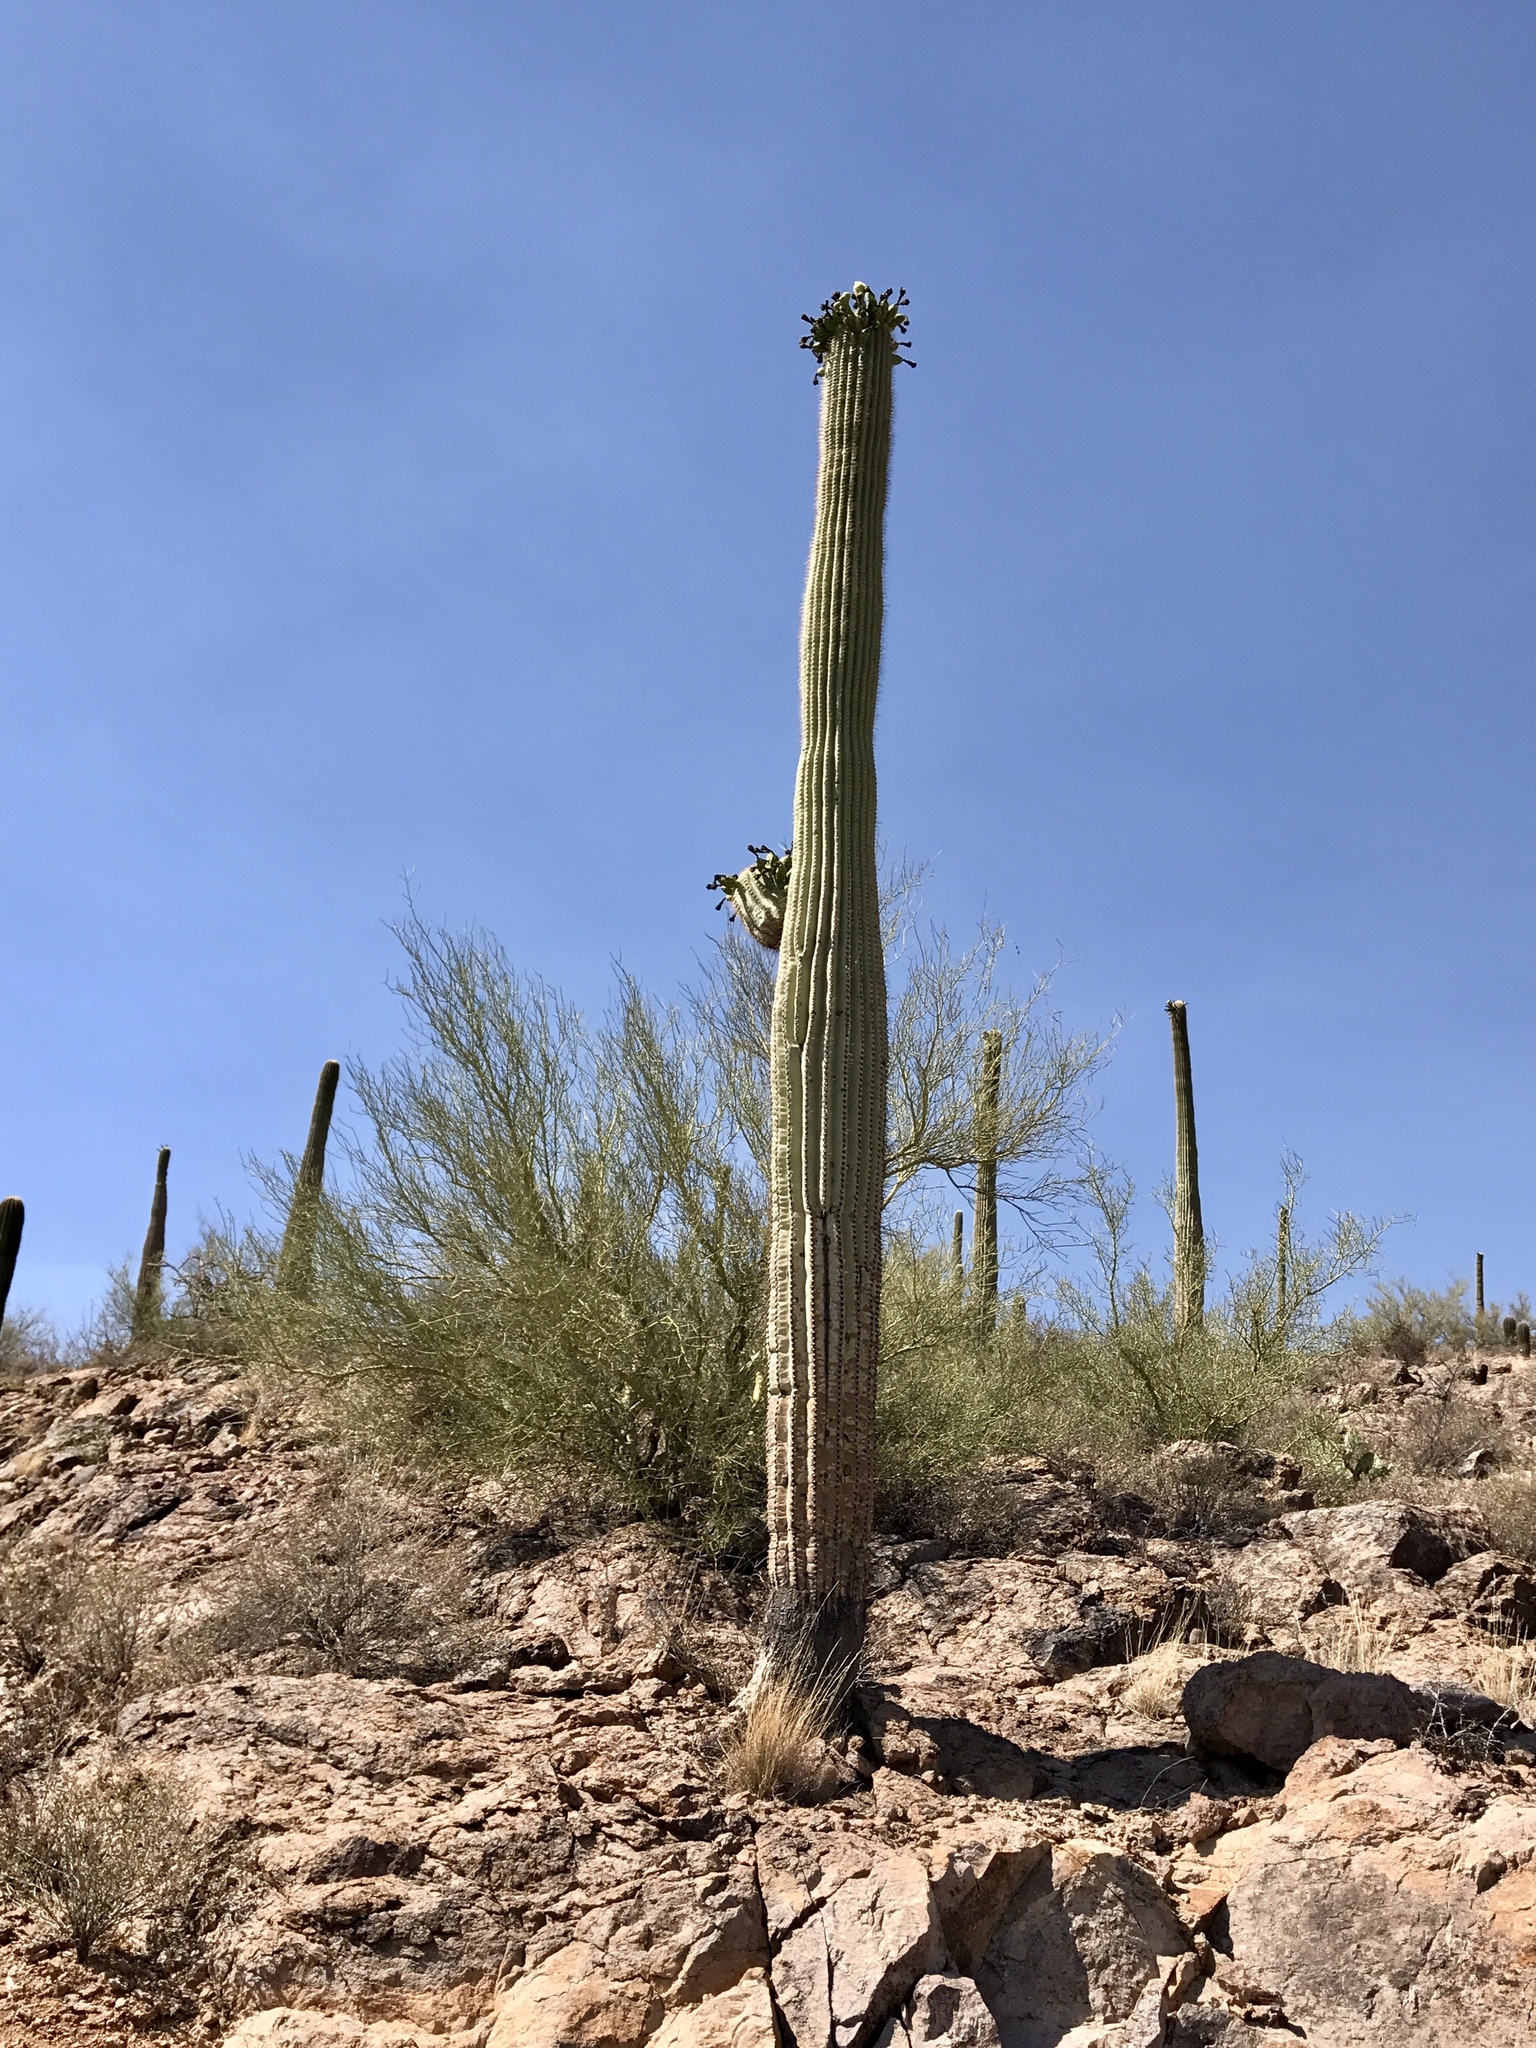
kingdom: Plantae
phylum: Tracheophyta
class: Magnoliopsida
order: Caryophyllales
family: Cactaceae
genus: Carnegiea
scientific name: Carnegiea gigantea
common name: Saguaro
